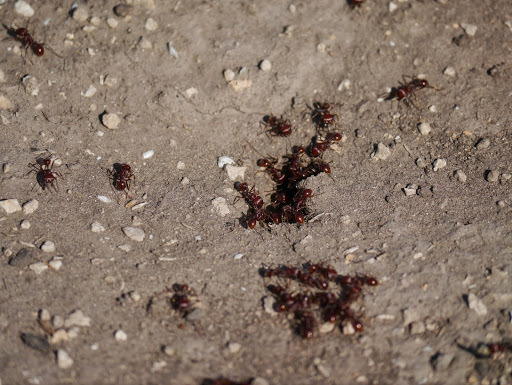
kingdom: Animalia
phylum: Arthropoda
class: Insecta
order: Hymenoptera
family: Formicidae
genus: Pogonomyrmex
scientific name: Pogonomyrmex barbatus
